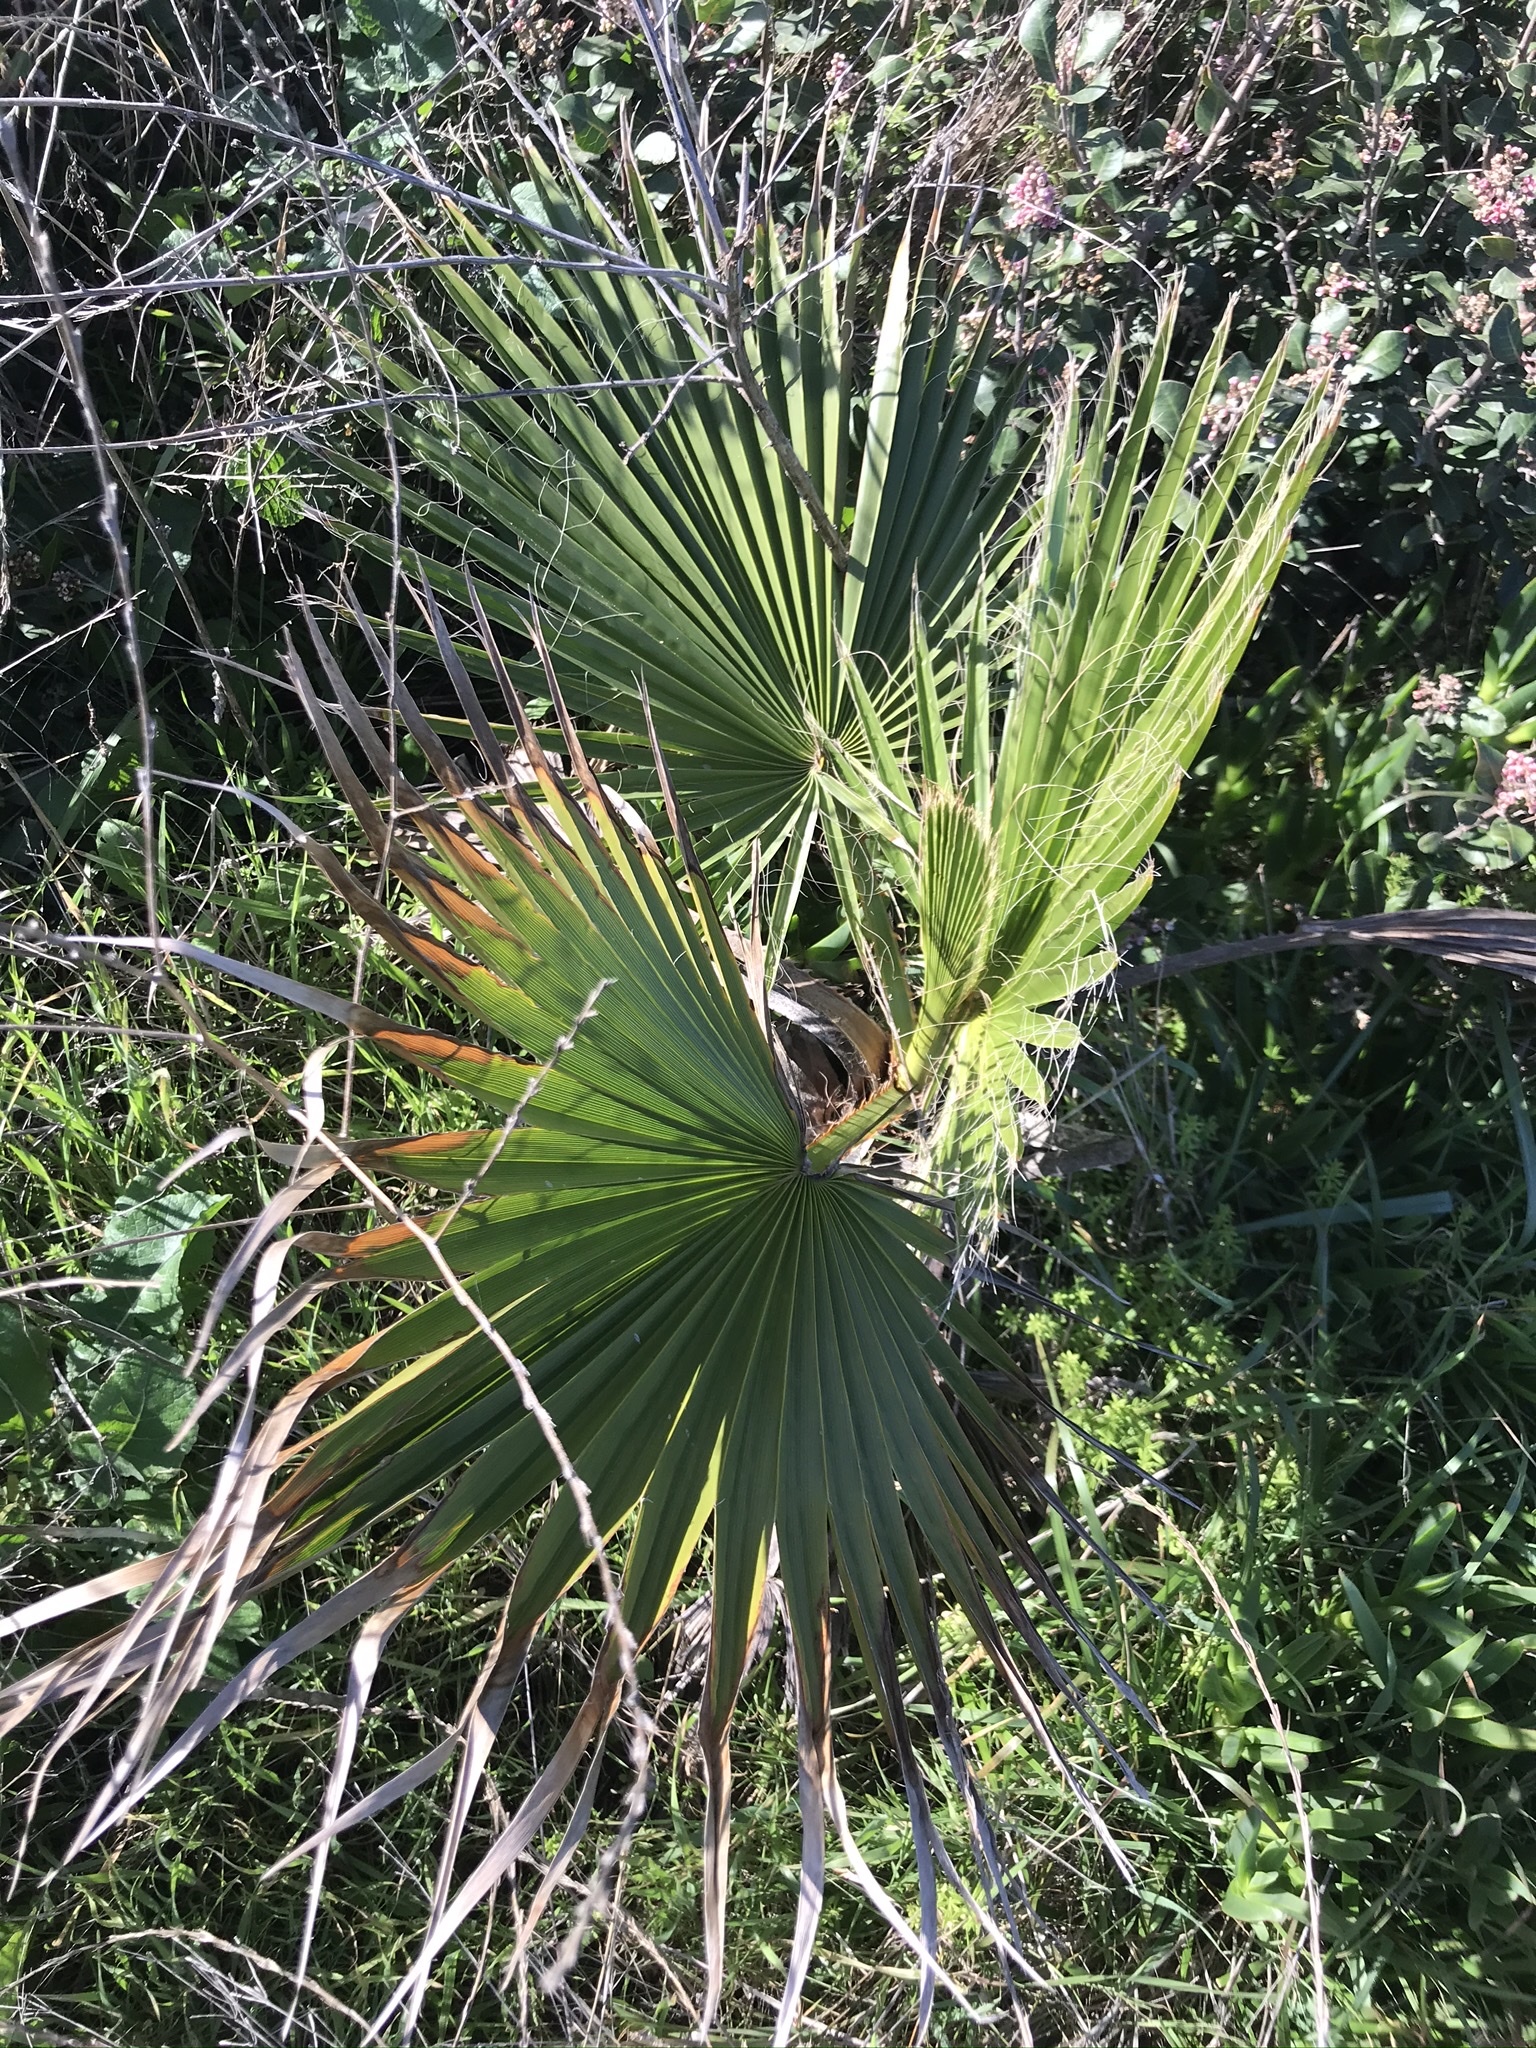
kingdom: Plantae
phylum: Tracheophyta
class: Liliopsida
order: Arecales
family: Arecaceae
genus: Washingtonia
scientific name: Washingtonia robusta
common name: Mexican fan palm
